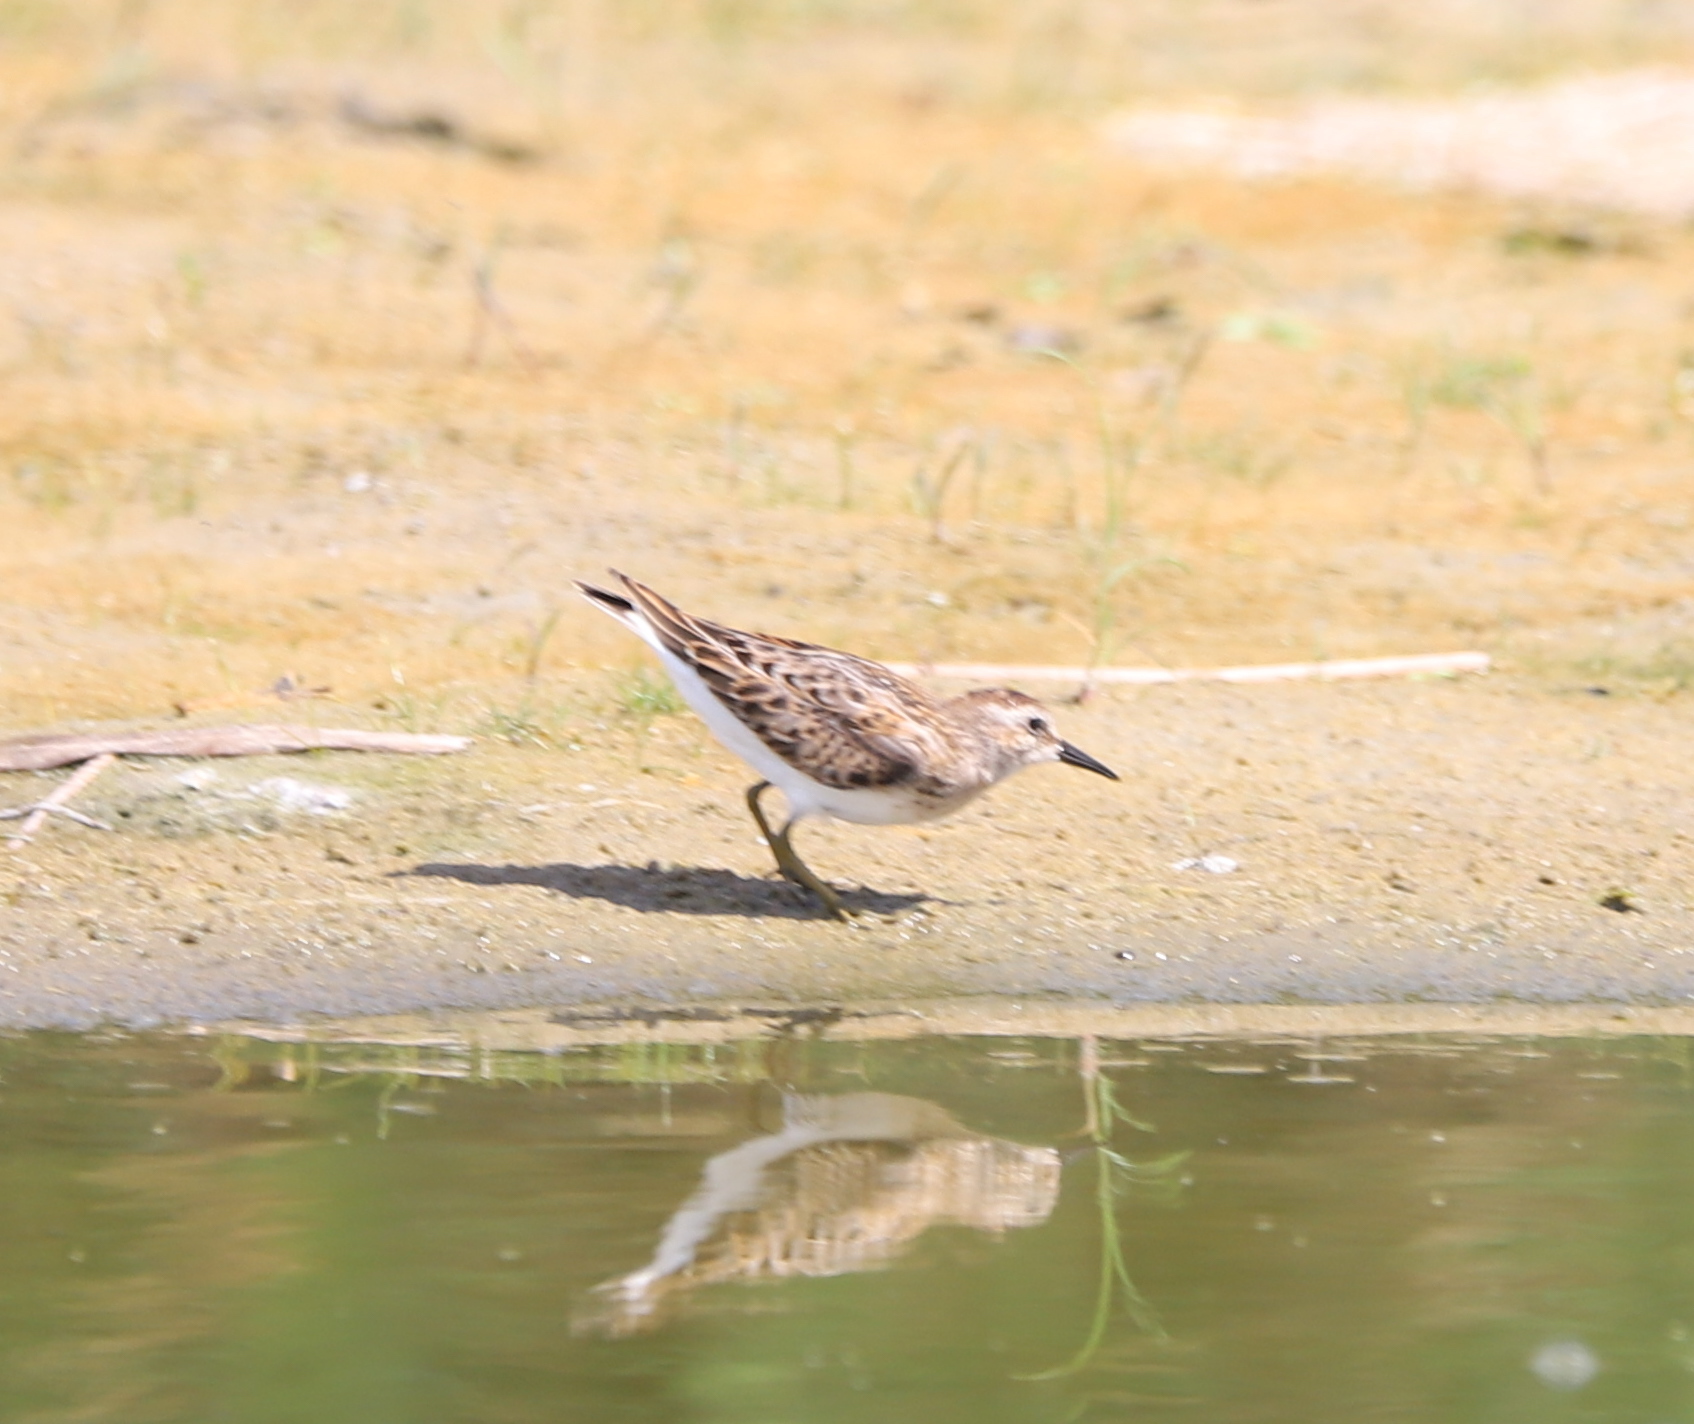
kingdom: Animalia
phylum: Chordata
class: Aves
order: Charadriiformes
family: Scolopacidae
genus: Calidris
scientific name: Calidris minutilla
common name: Least sandpiper
